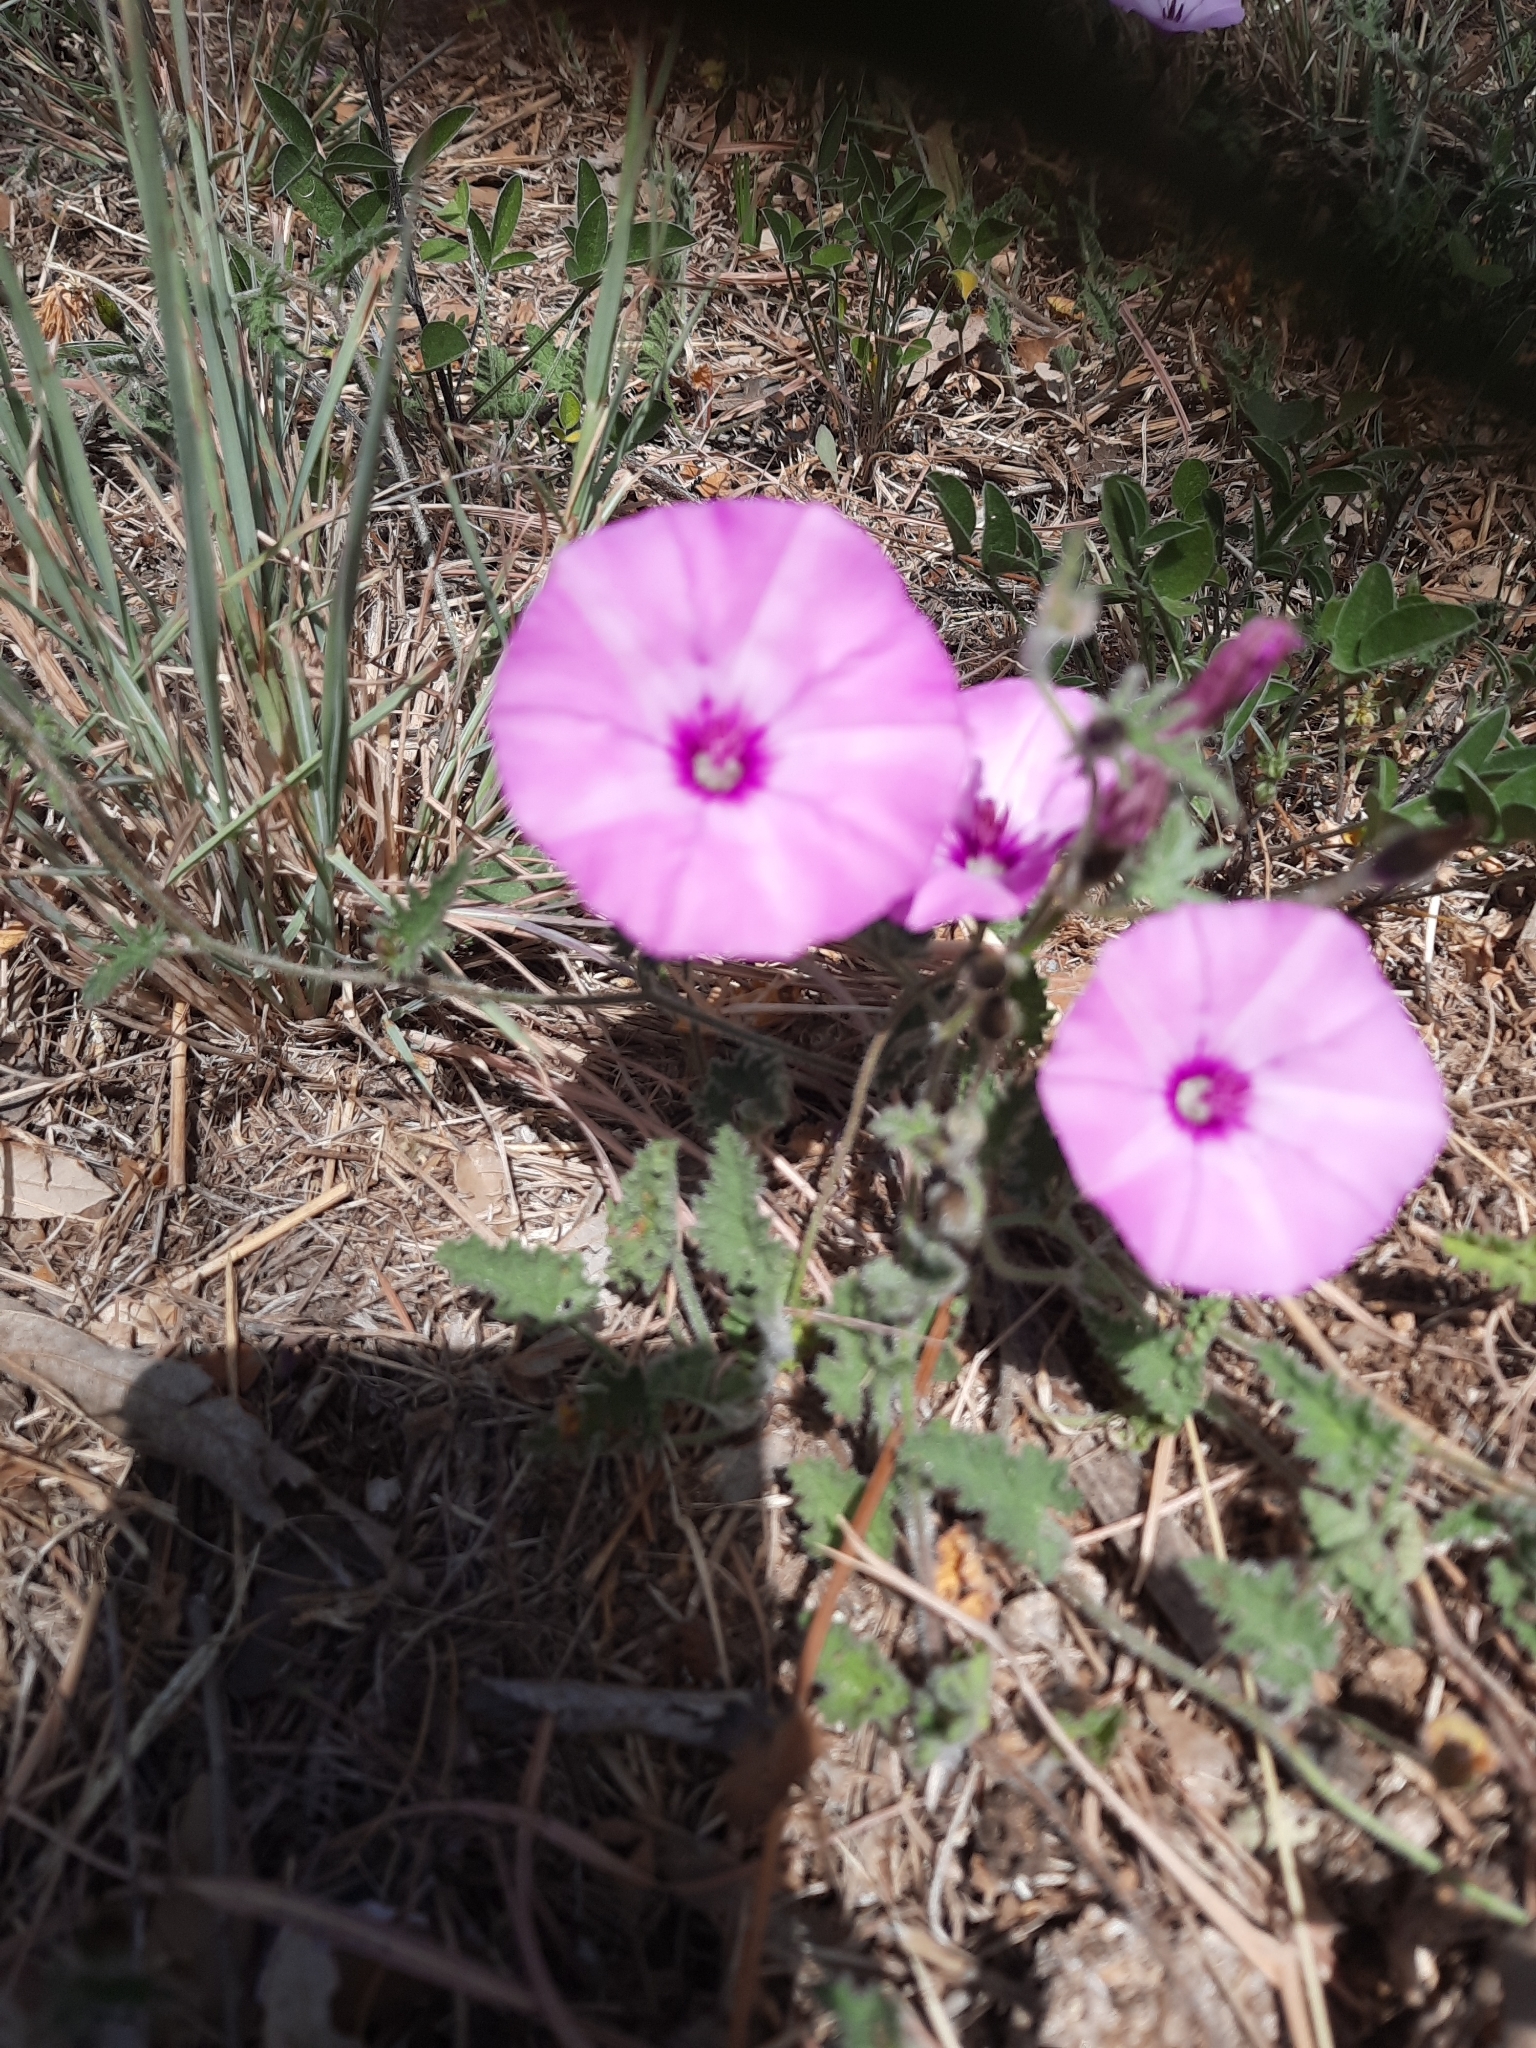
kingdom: Plantae
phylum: Tracheophyta
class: Magnoliopsida
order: Solanales
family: Convolvulaceae
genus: Convolvulus
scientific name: Convolvulus althaeoides
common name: Mallow bindweed
